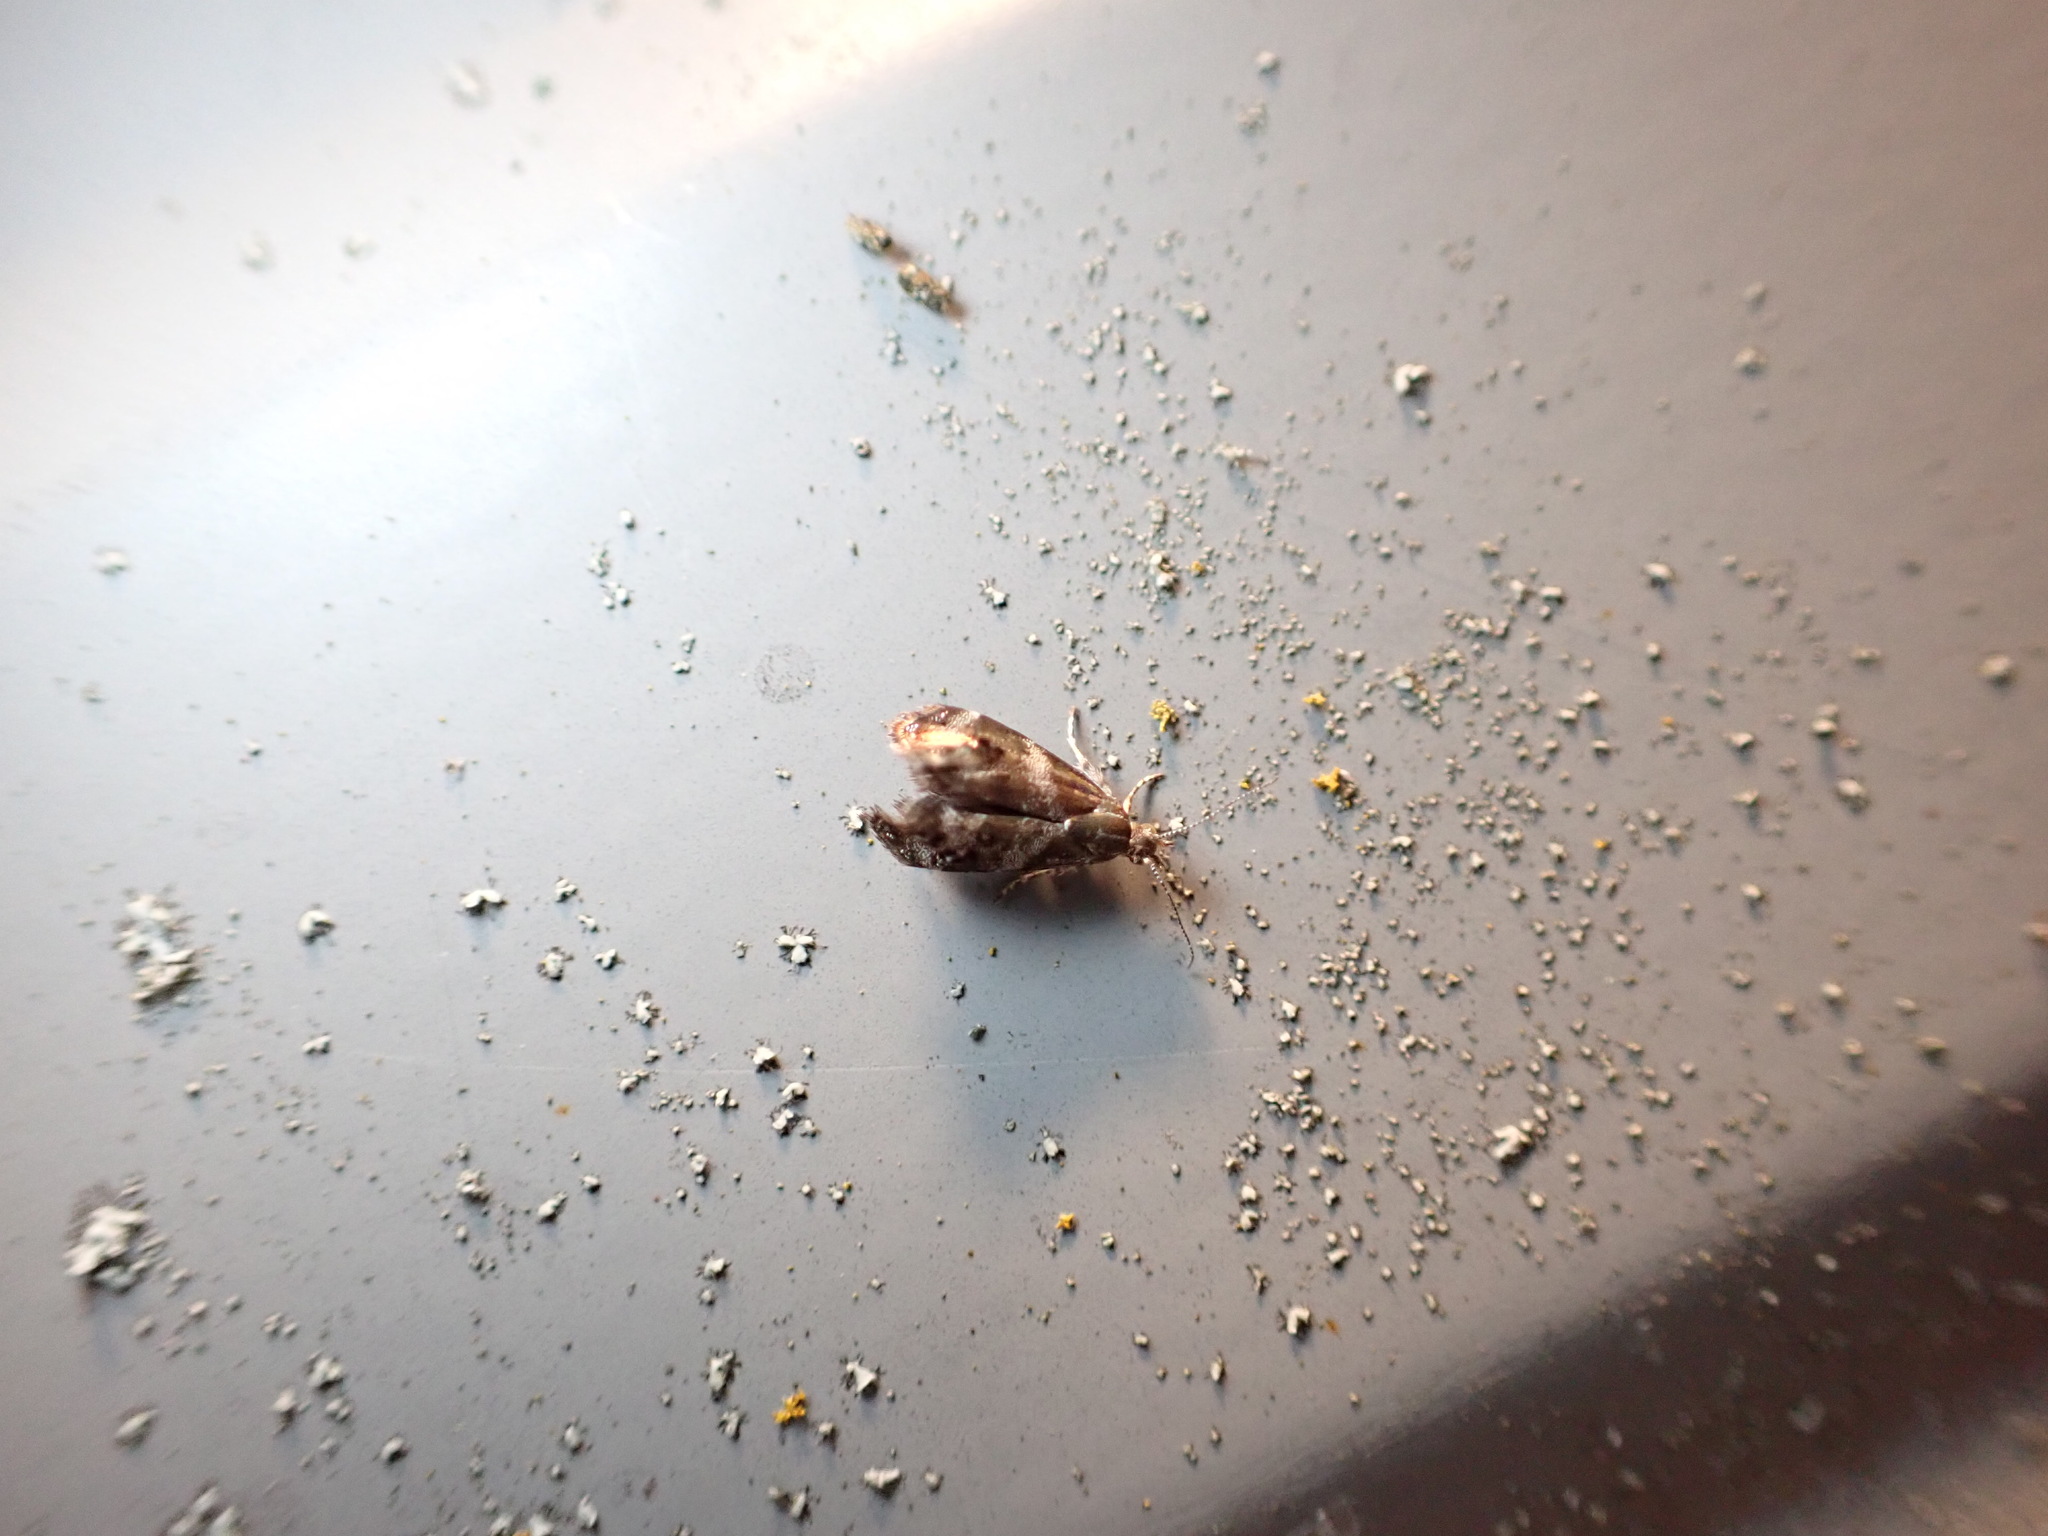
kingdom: Animalia
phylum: Arthropoda
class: Insecta
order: Lepidoptera
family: Choreutidae
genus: Tebenna
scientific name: Tebenna micalis
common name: Vagrant twitcher
